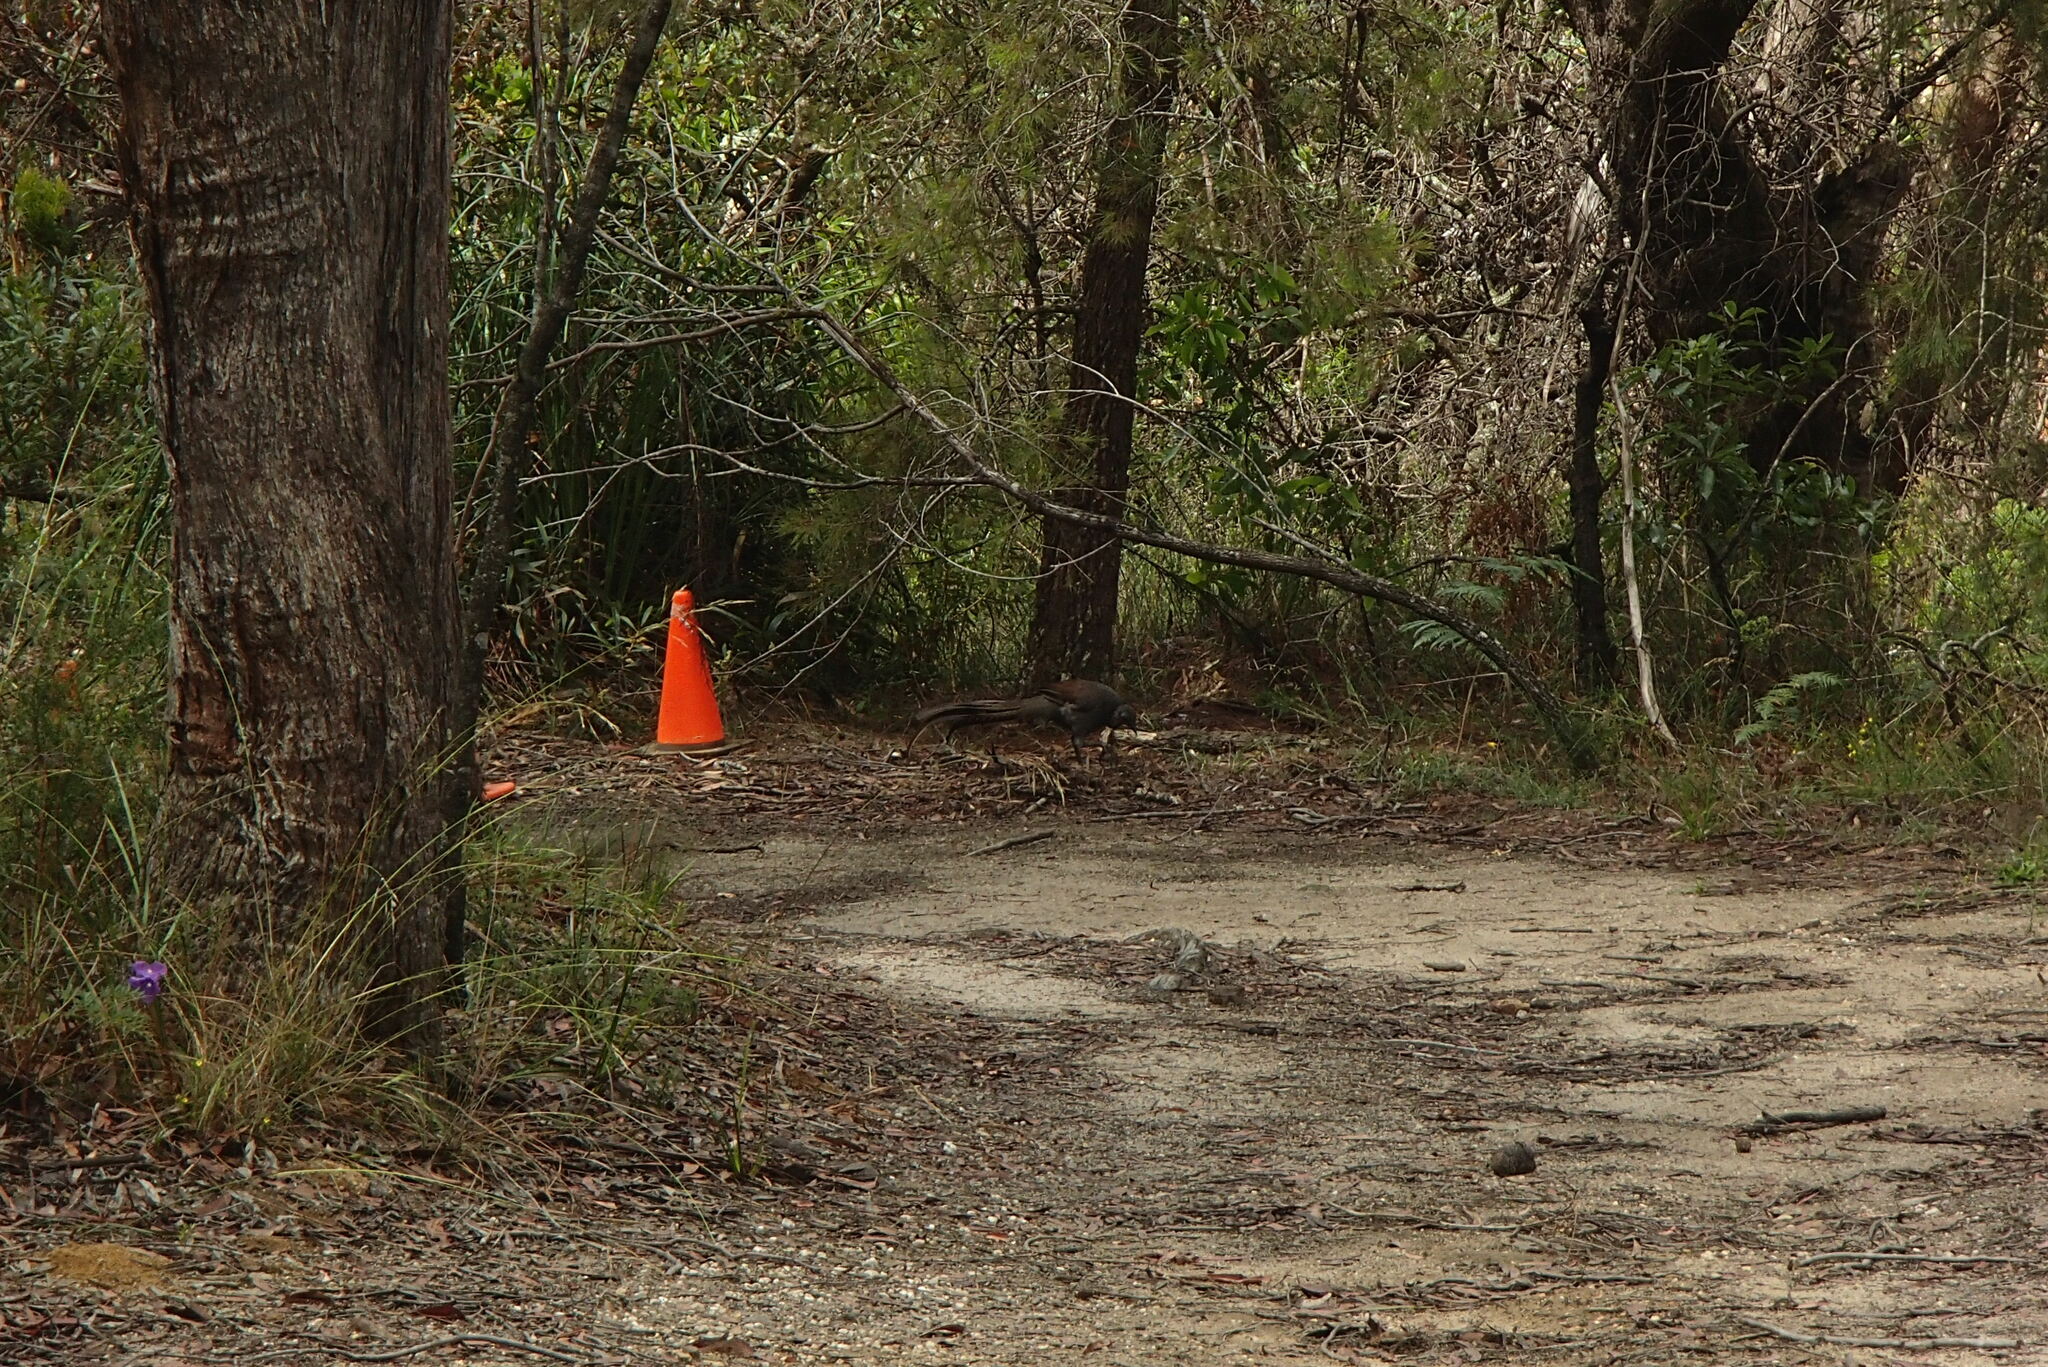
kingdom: Animalia
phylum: Chordata
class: Aves
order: Passeriformes
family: Menuridae
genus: Menura
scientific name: Menura novaehollandiae
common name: Superb lyrebird
